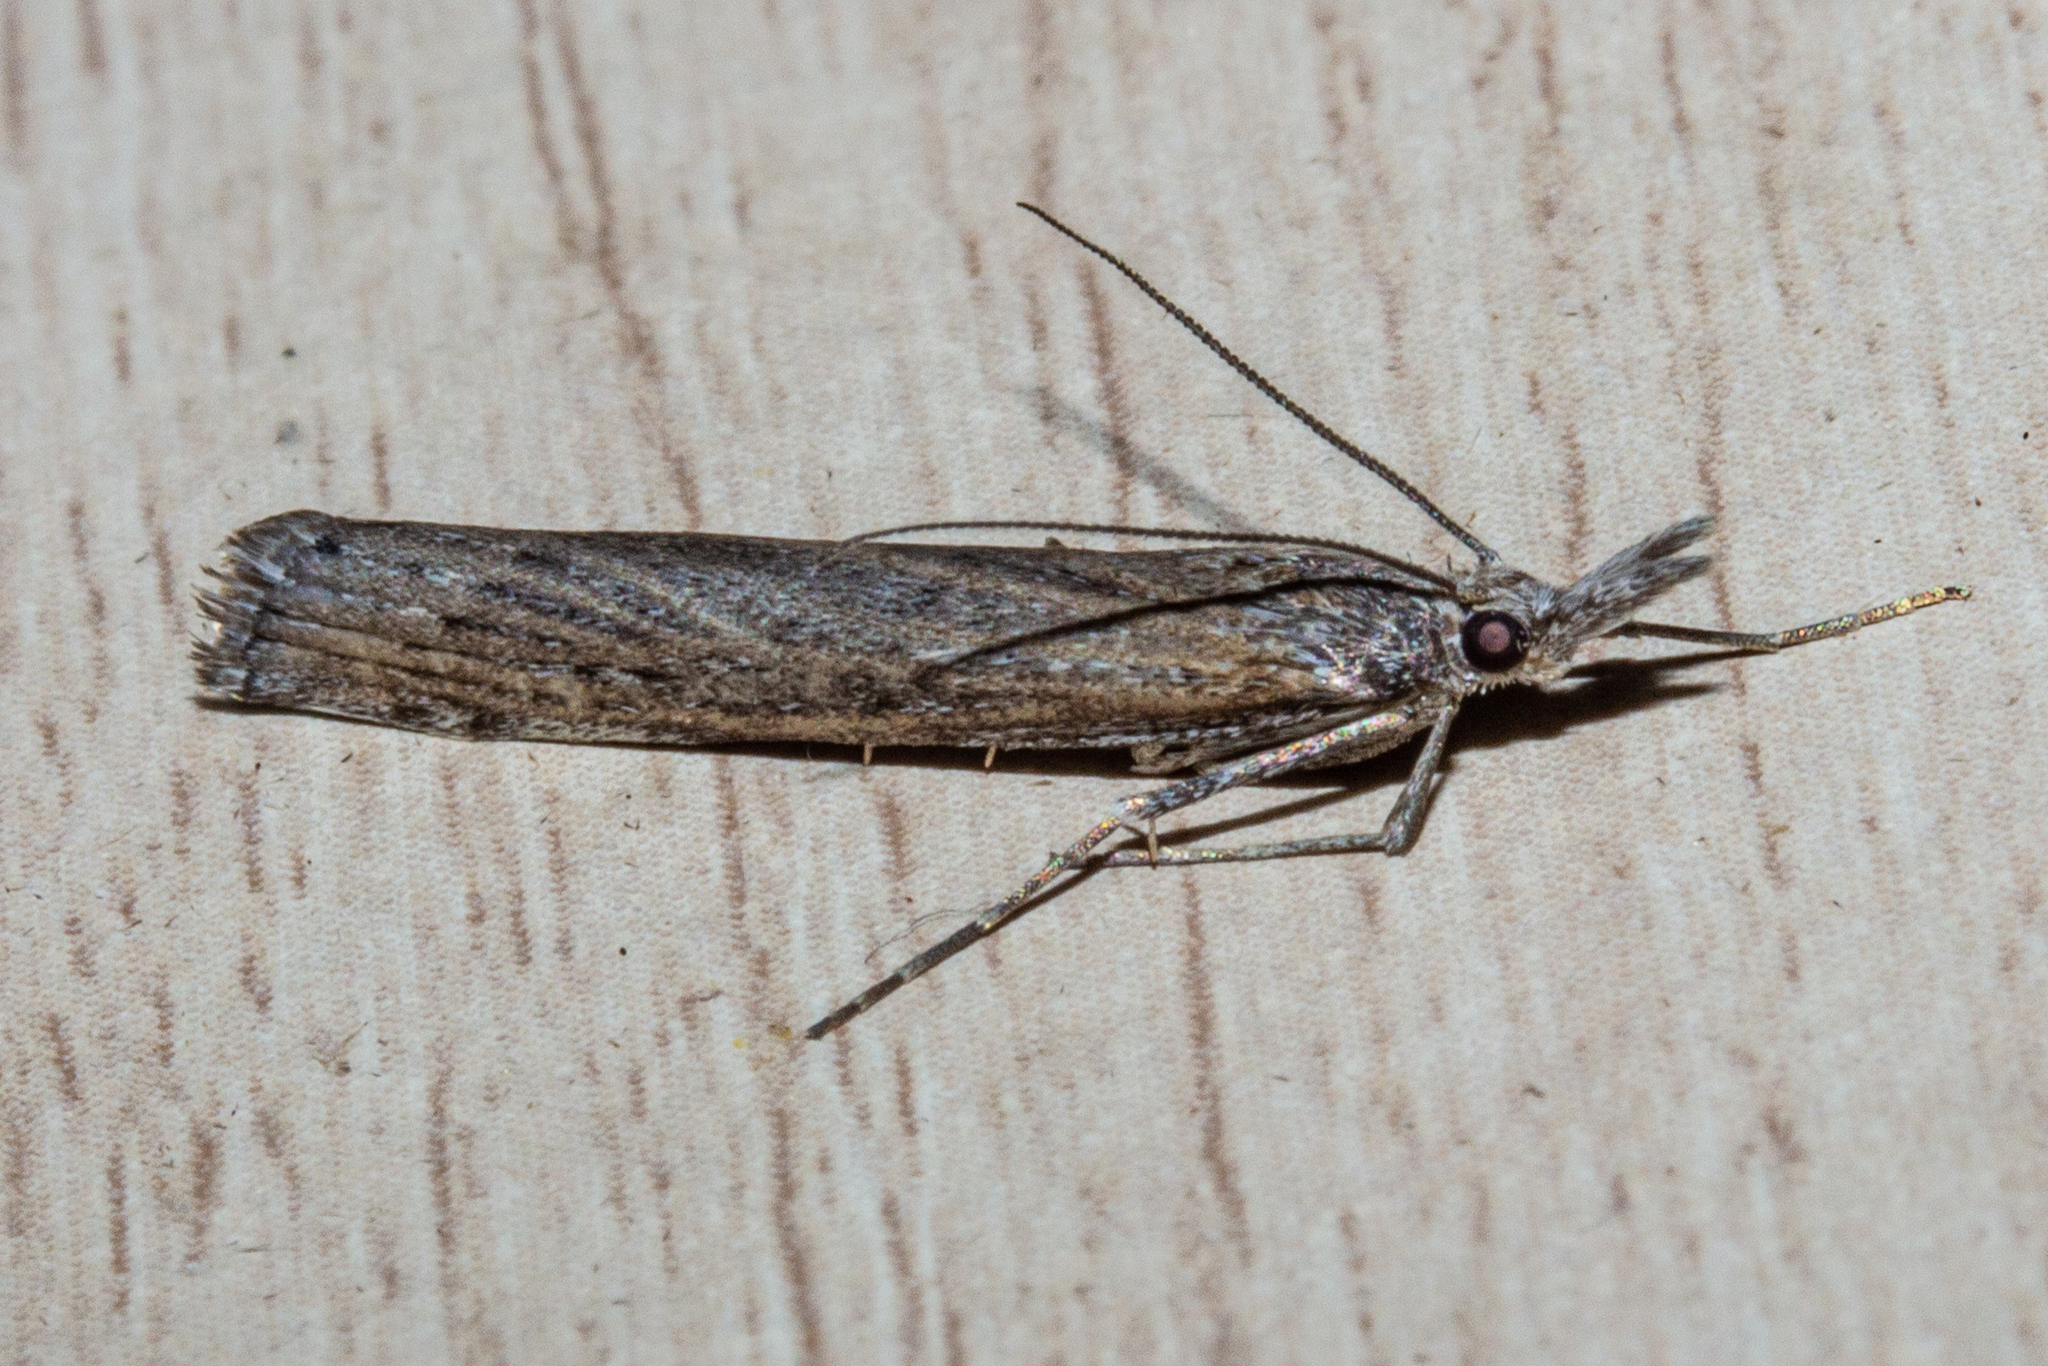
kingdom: Animalia
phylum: Arthropoda
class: Insecta
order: Lepidoptera
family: Crambidae
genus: Orocrambus
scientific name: Orocrambus cyclopicus
